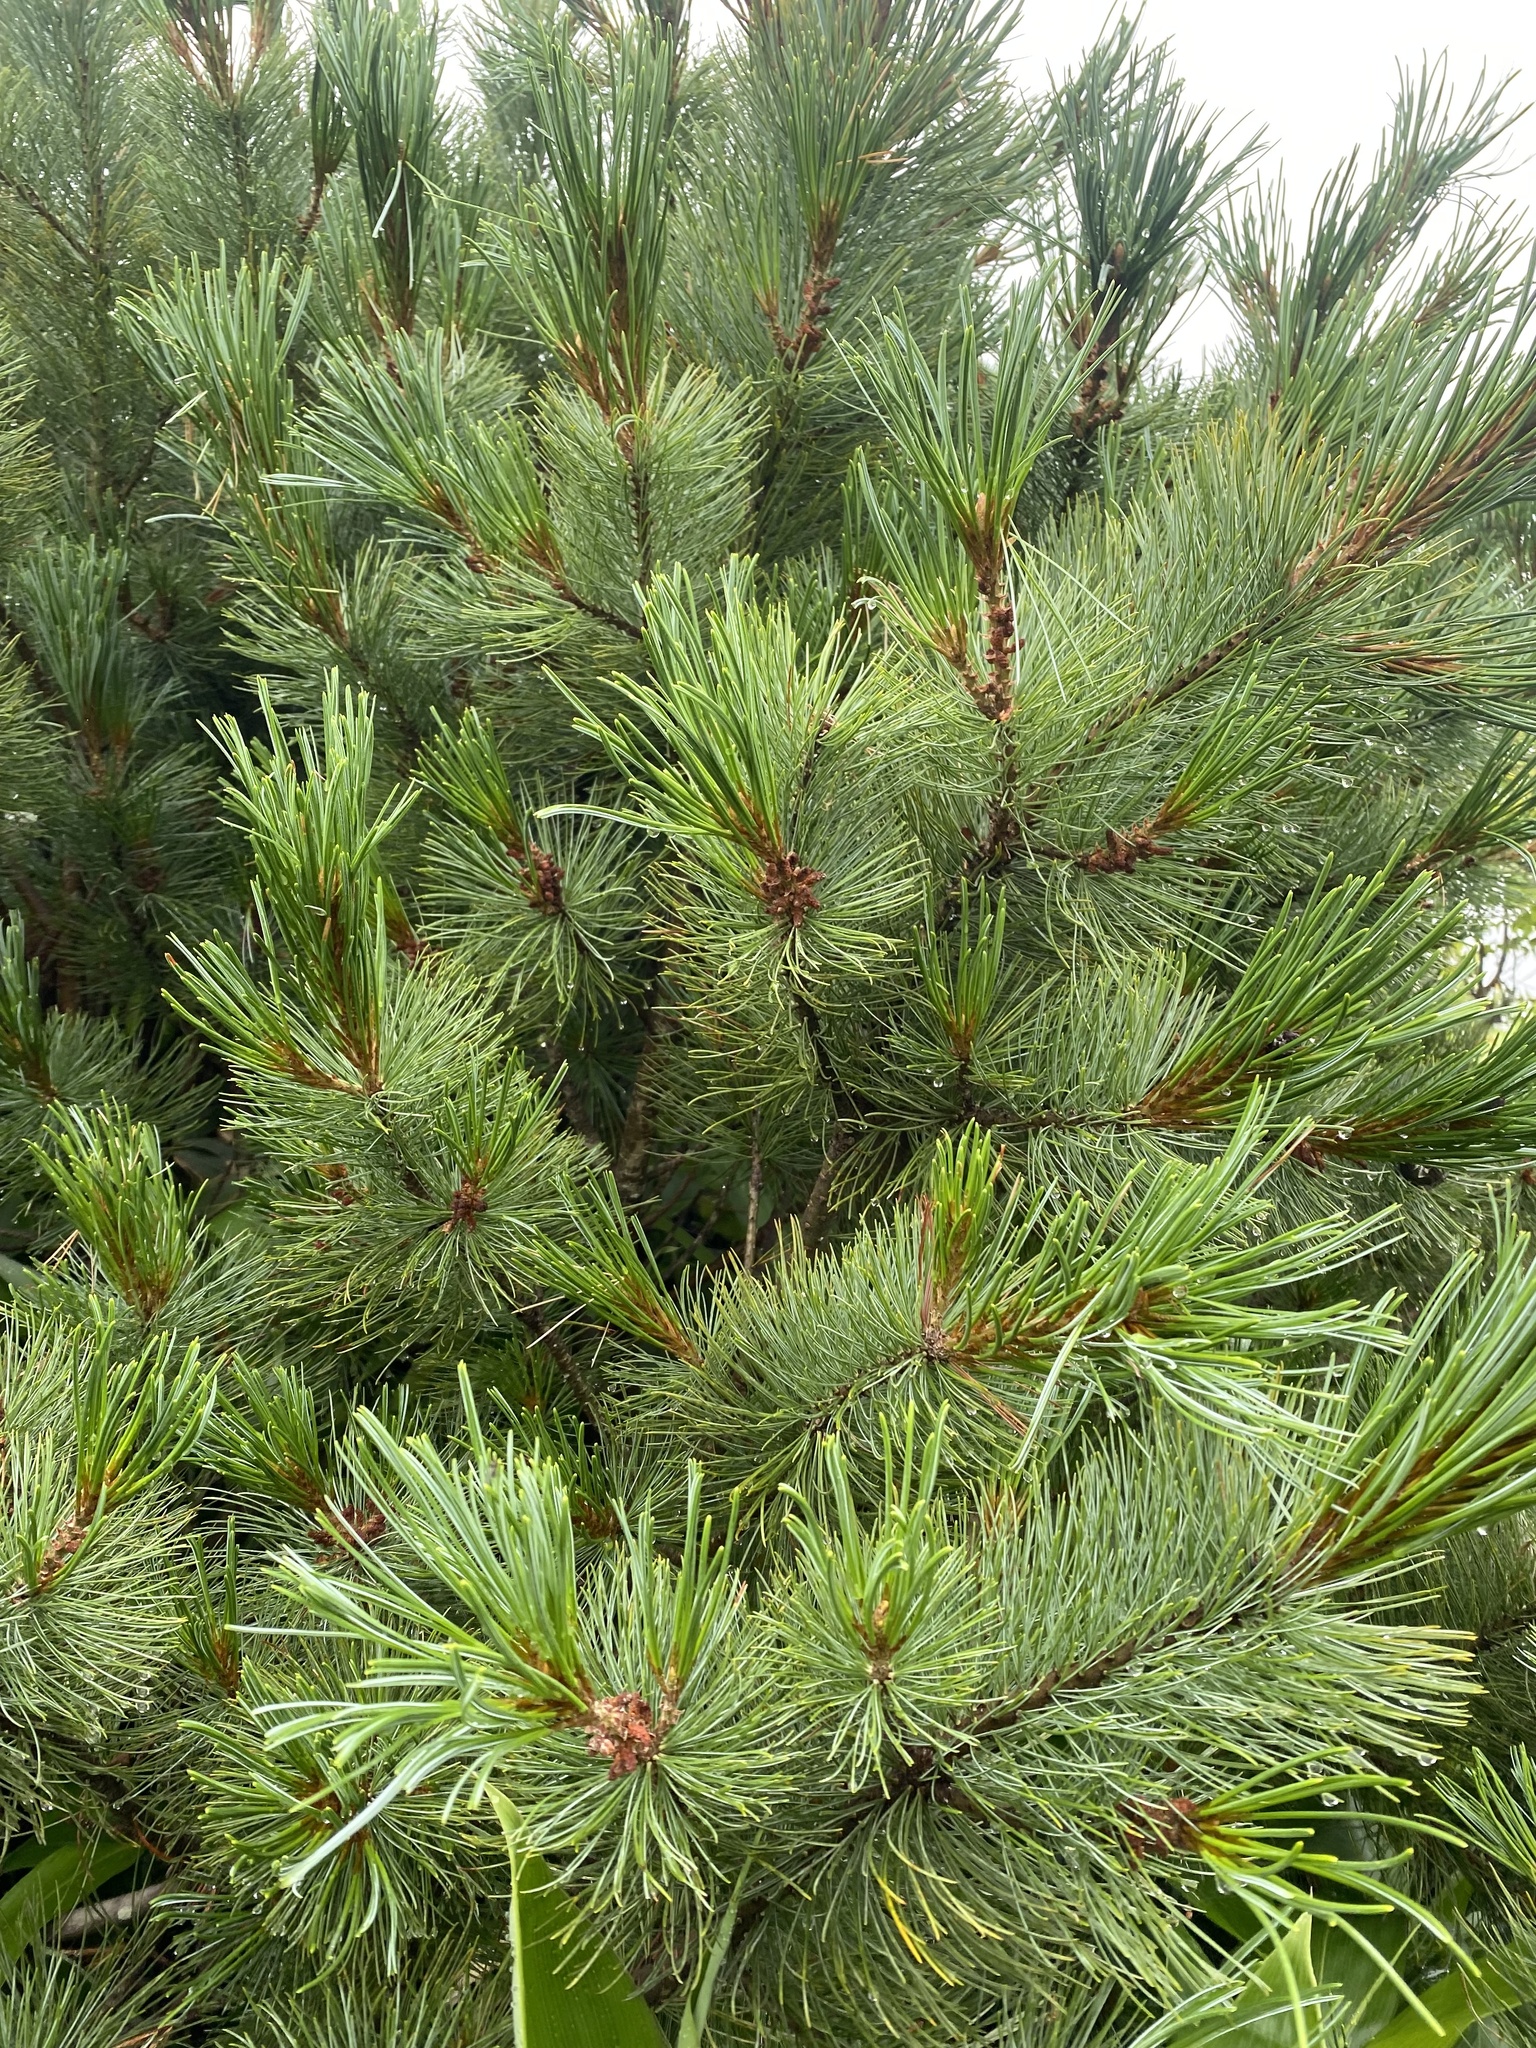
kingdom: Plantae
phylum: Tracheophyta
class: Pinopsida
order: Pinales
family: Pinaceae
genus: Pinus
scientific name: Pinus pumila
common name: Dwarf siberian pine
